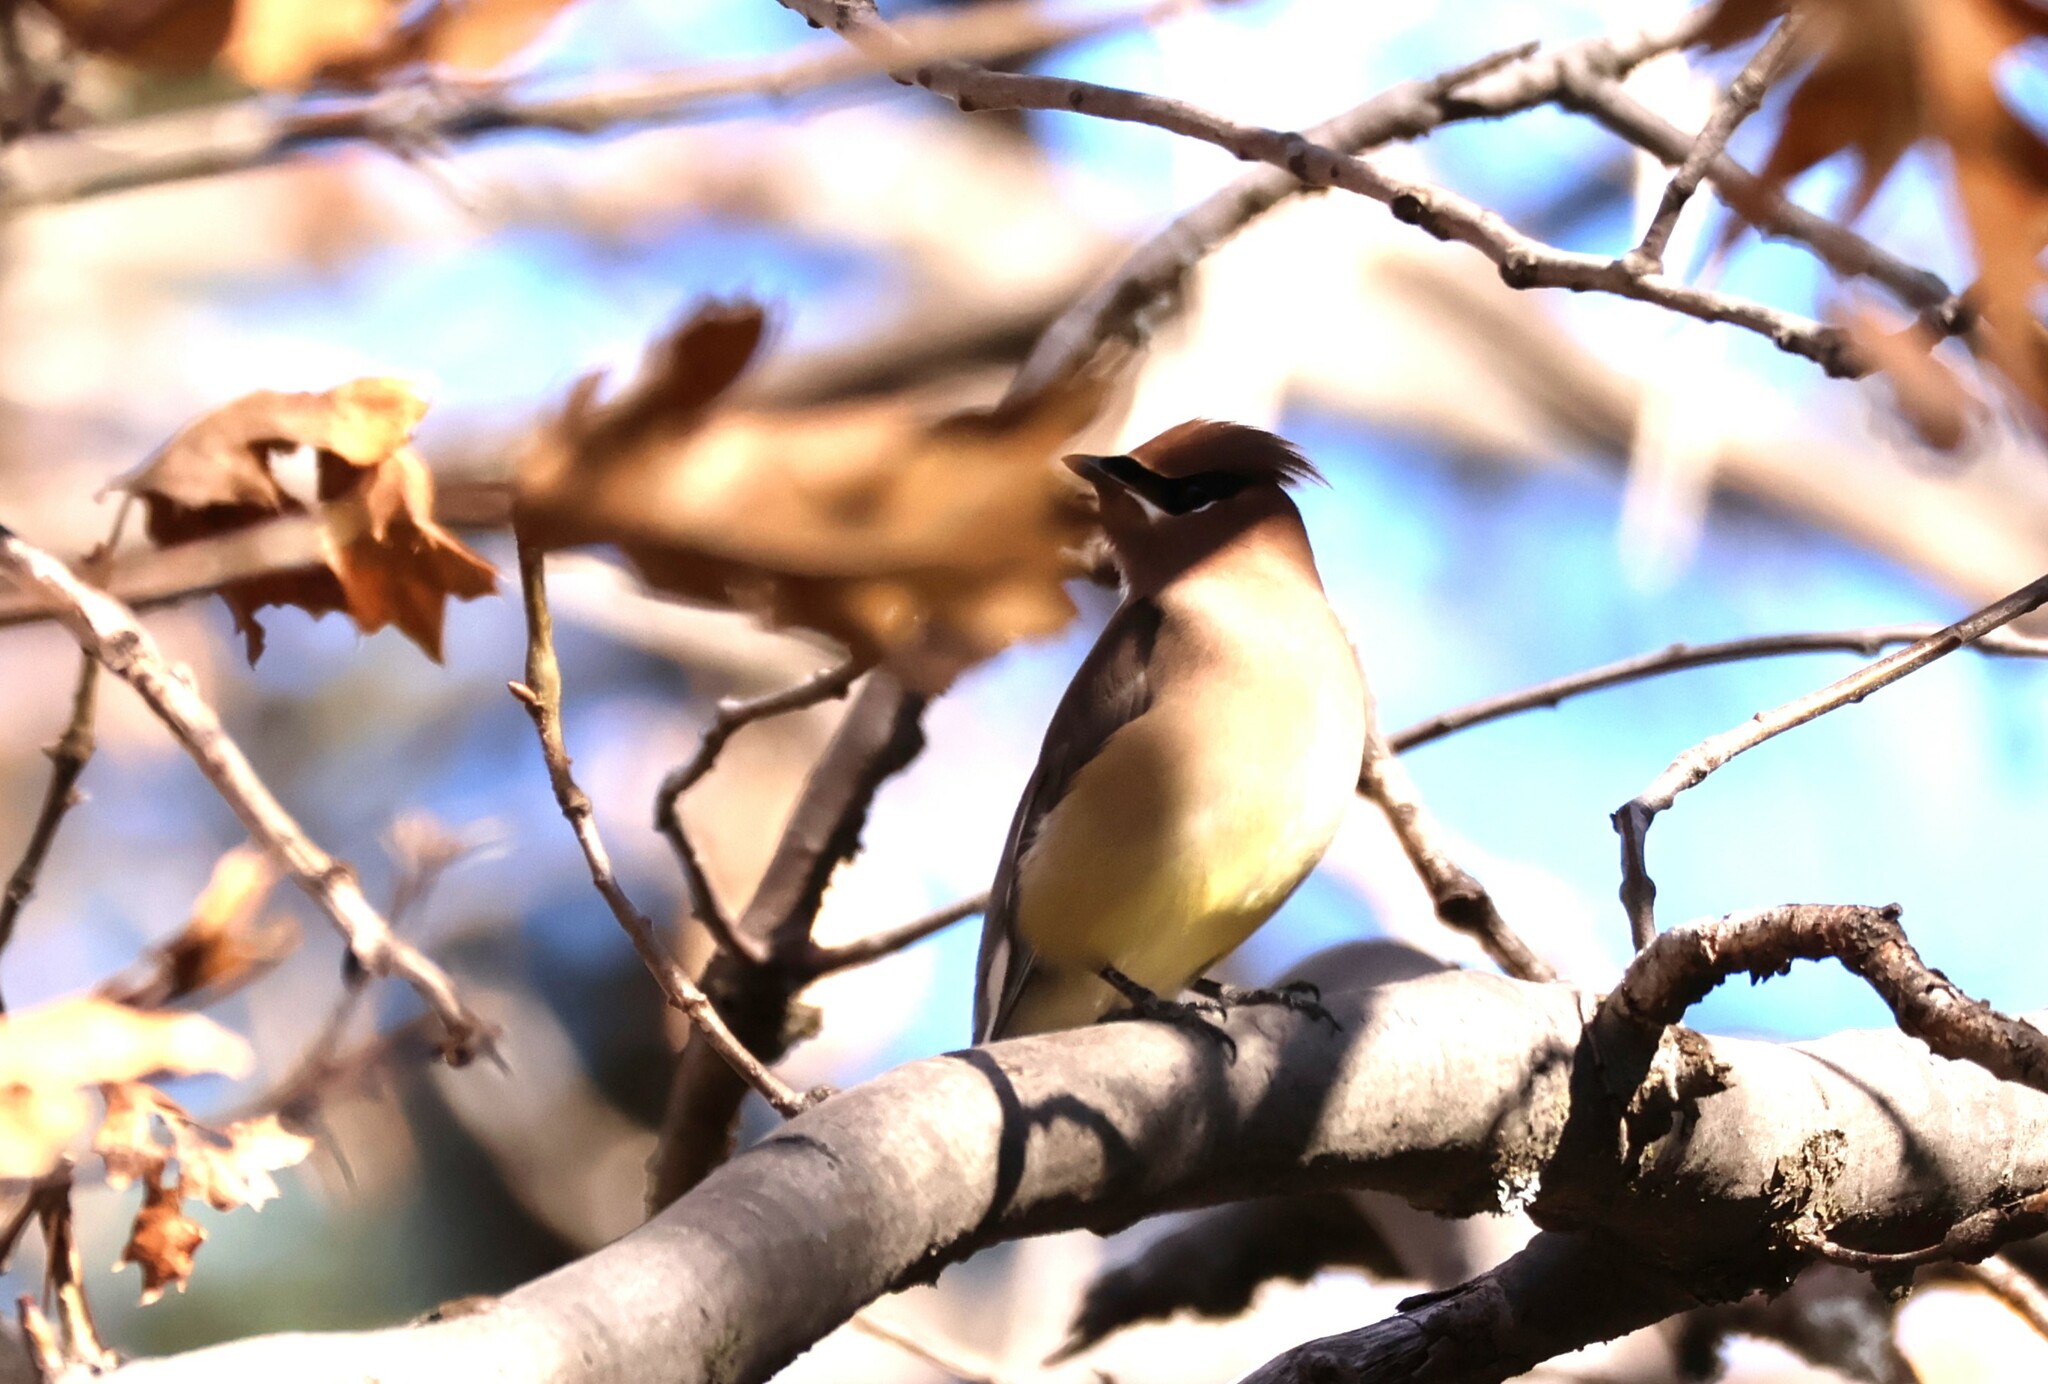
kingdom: Animalia
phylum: Chordata
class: Aves
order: Passeriformes
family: Bombycillidae
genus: Bombycilla
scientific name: Bombycilla cedrorum
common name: Cedar waxwing
